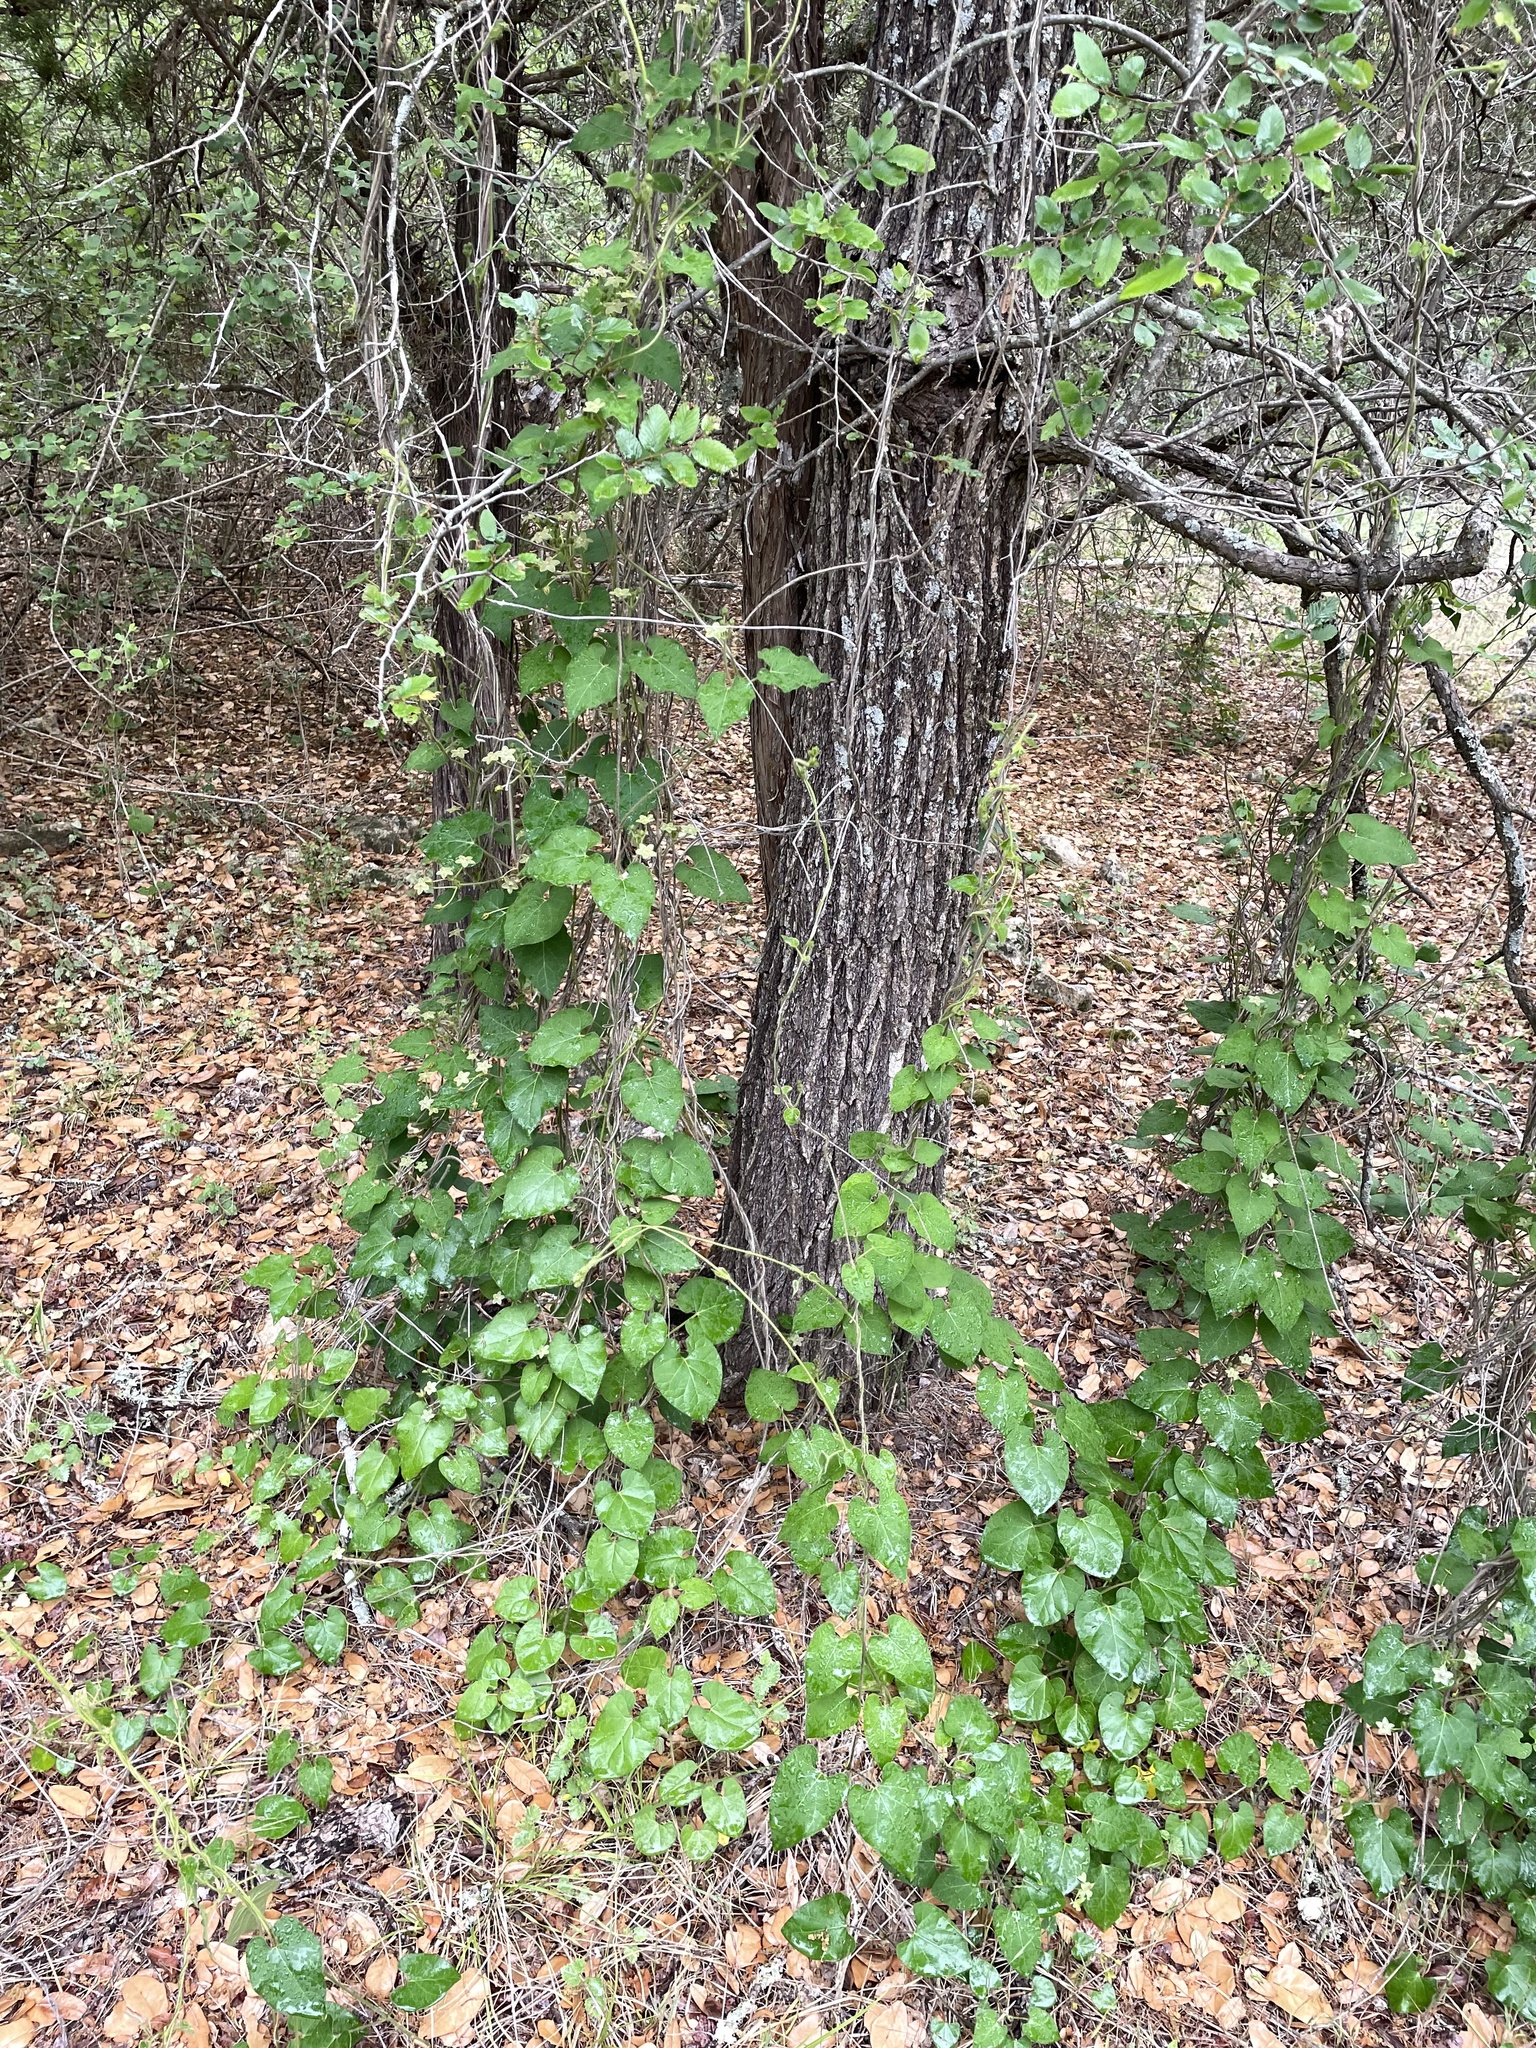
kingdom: Plantae
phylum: Tracheophyta
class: Magnoliopsida
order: Gentianales
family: Apocynaceae
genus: Dictyanthus
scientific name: Dictyanthus reticulatus
